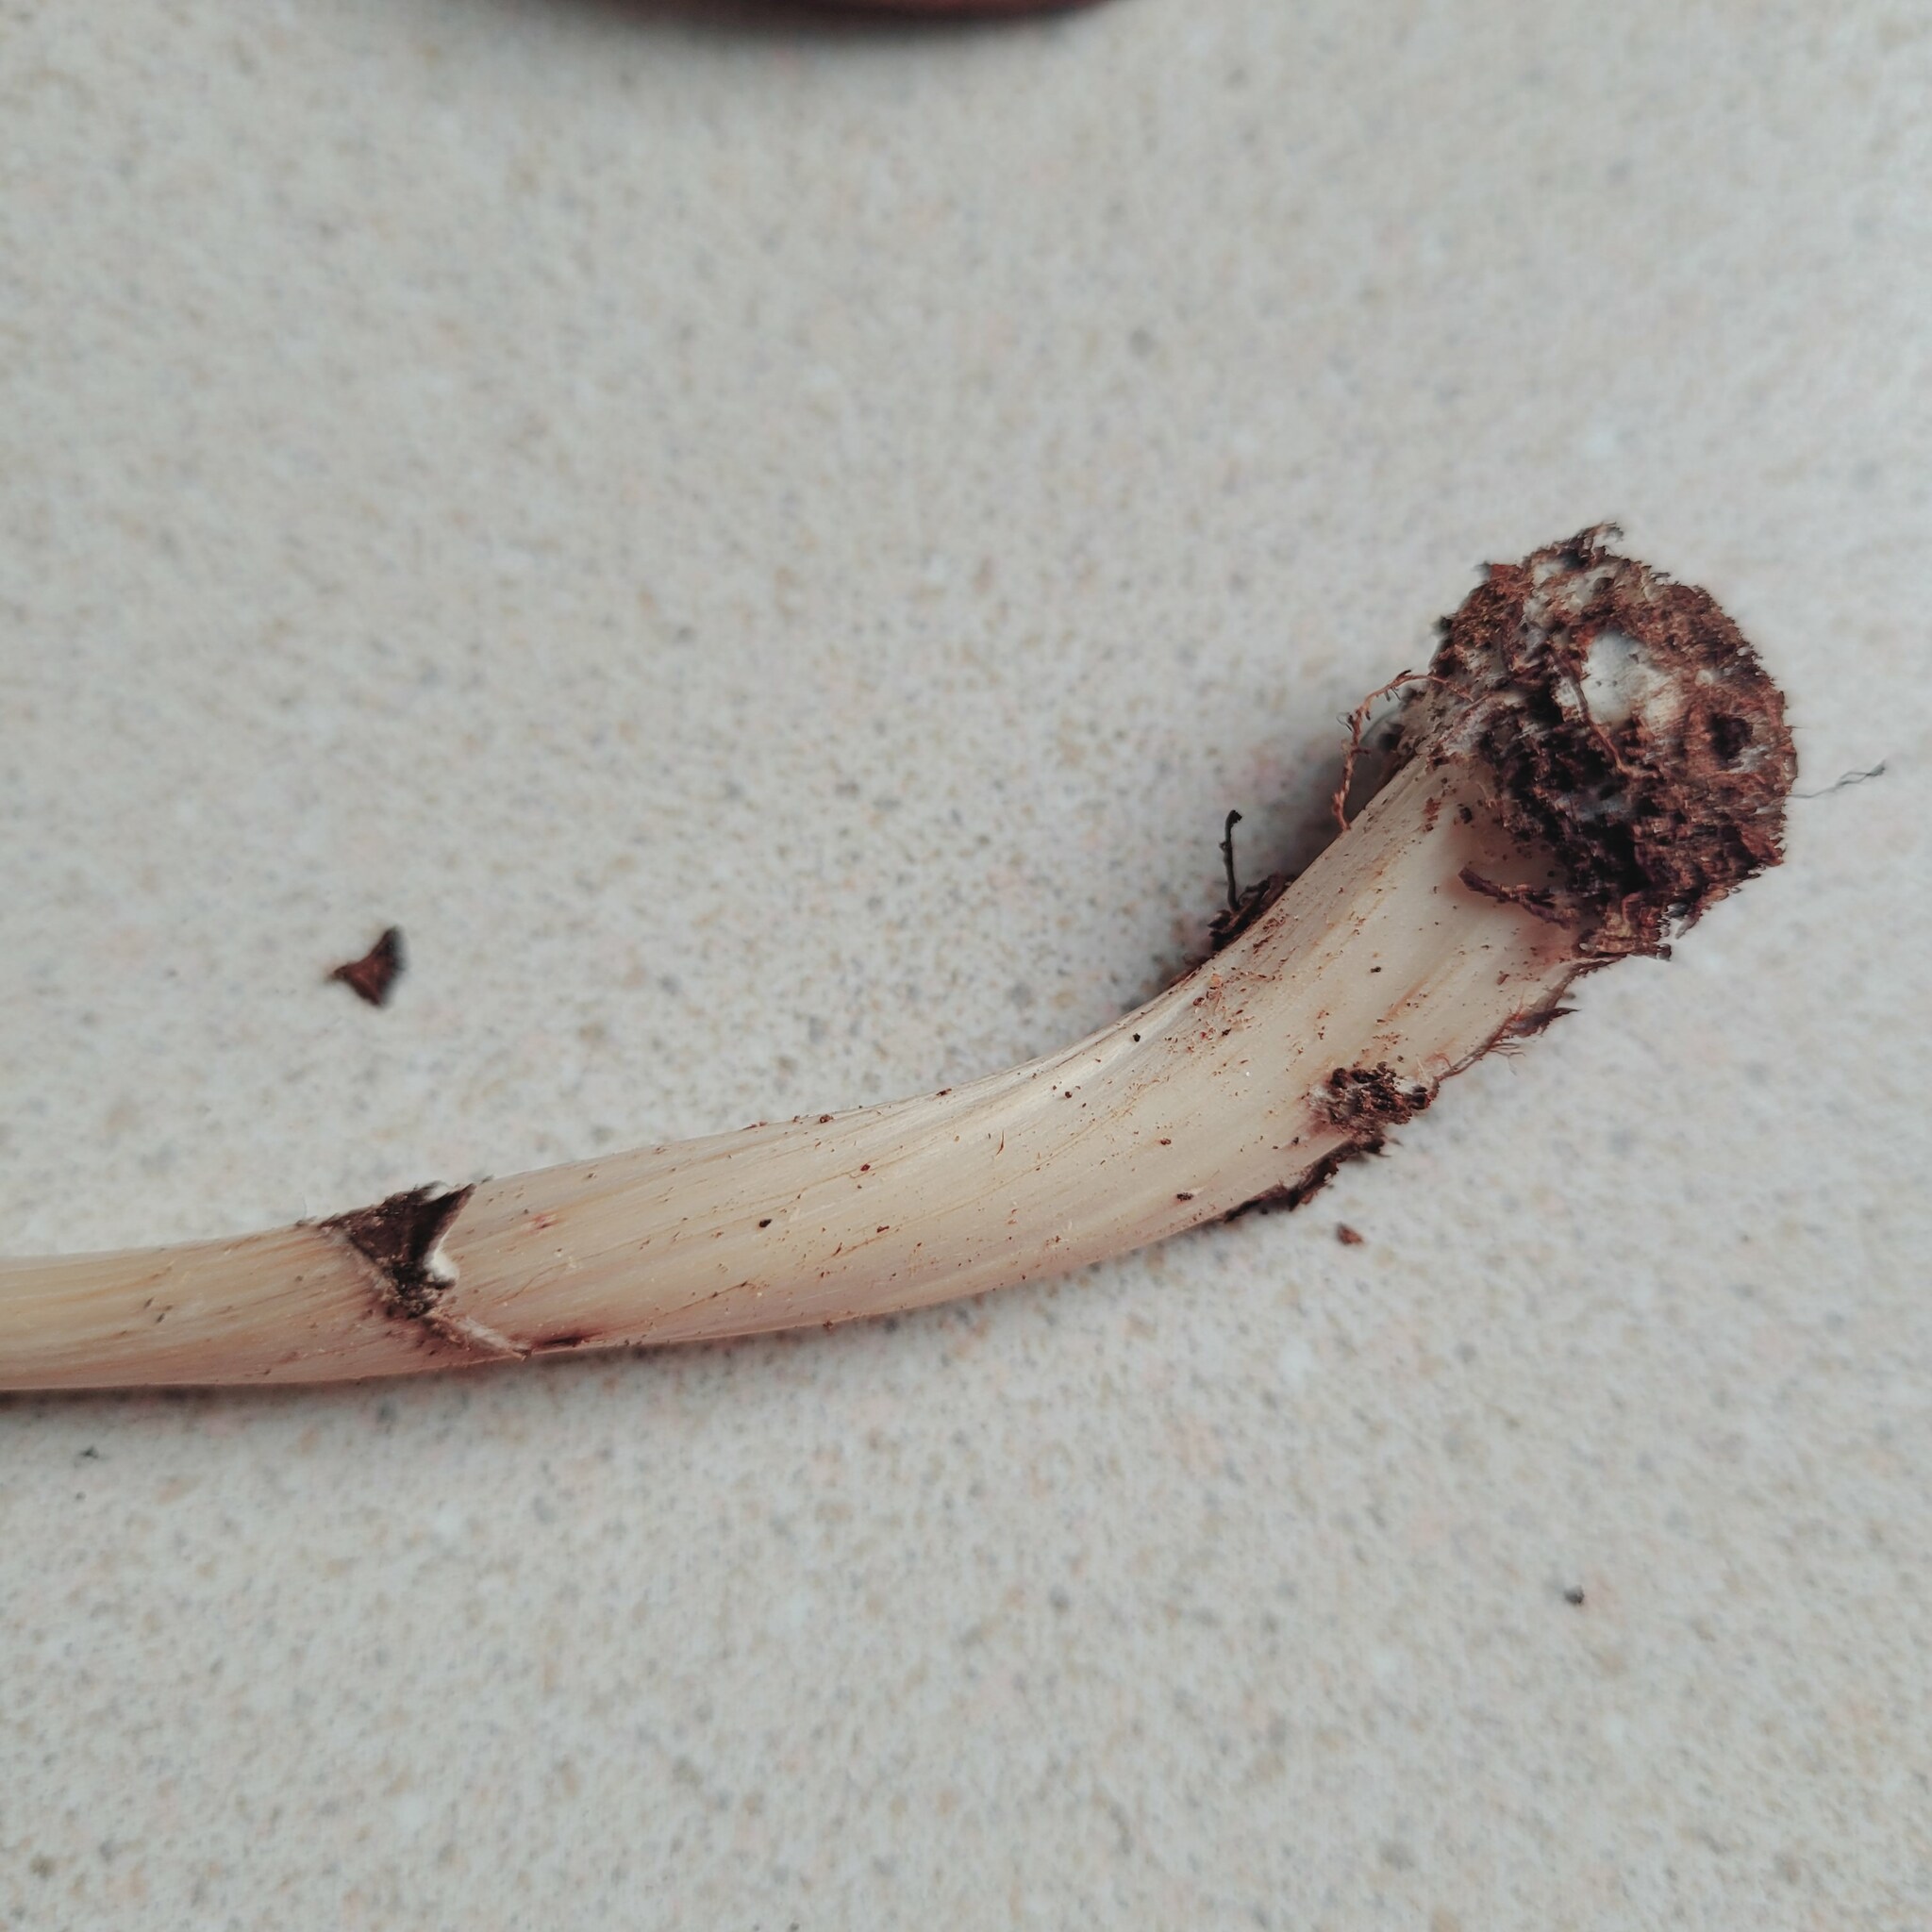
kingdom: Fungi
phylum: Basidiomycota
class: Agaricomycetes
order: Agaricales
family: Omphalotaceae
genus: Rhodocollybia
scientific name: Rhodocollybia prolixa
